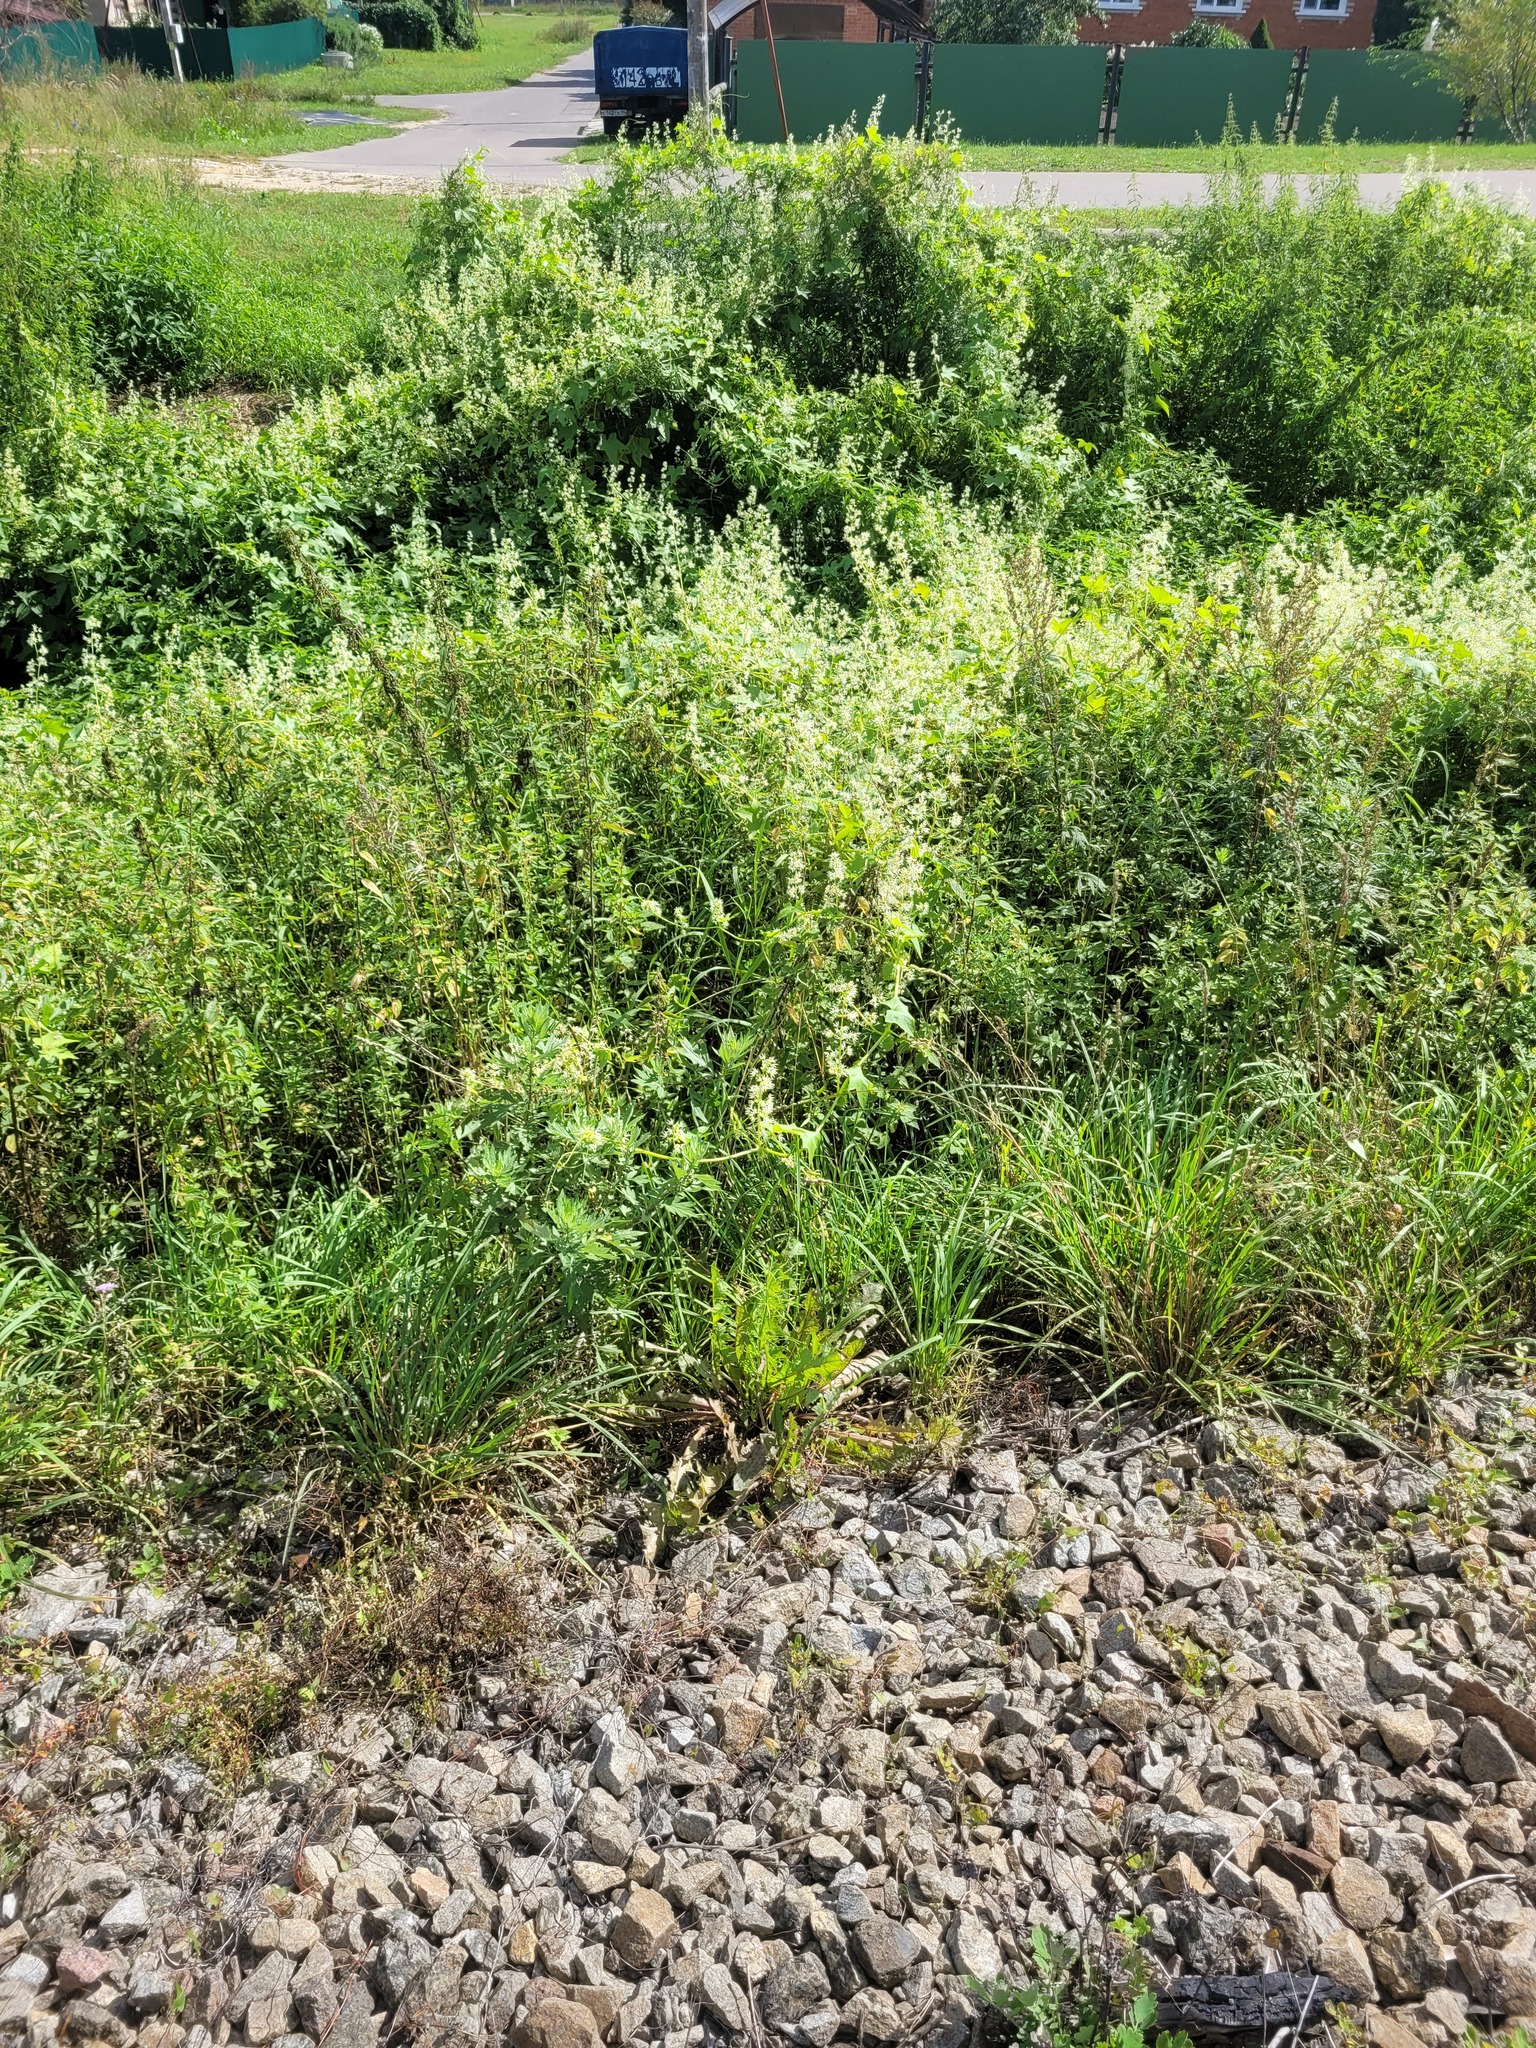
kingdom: Plantae
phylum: Tracheophyta
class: Magnoliopsida
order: Cucurbitales
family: Cucurbitaceae
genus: Echinocystis
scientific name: Echinocystis lobata
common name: Wild cucumber
